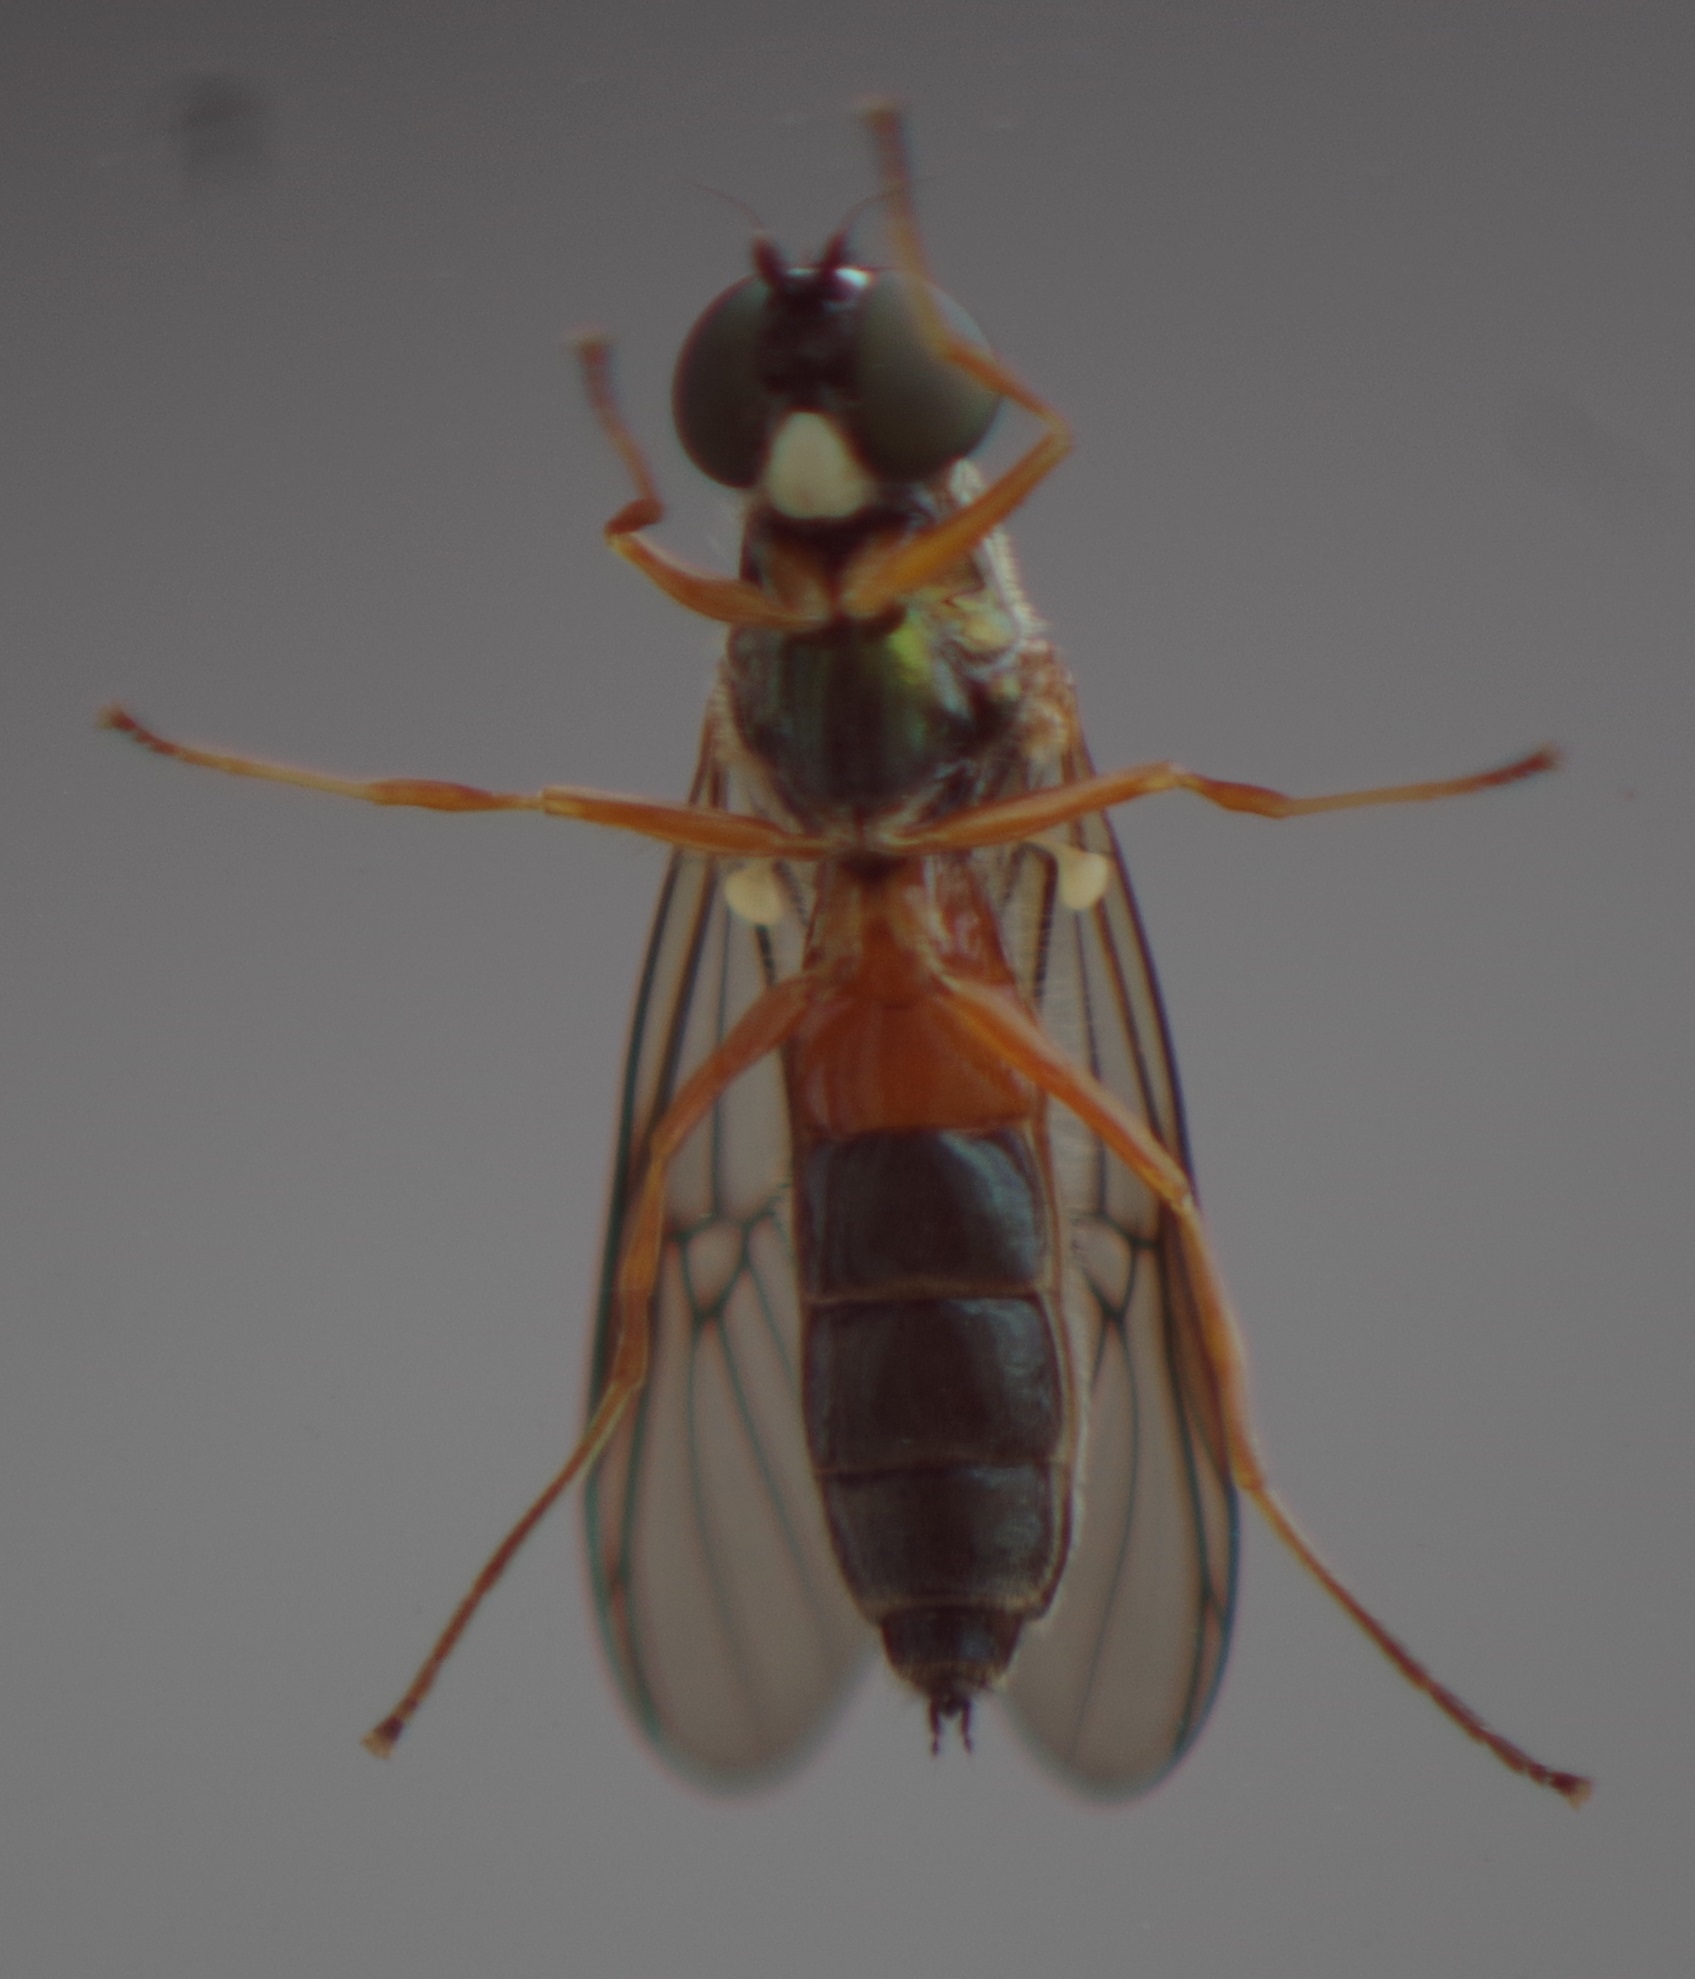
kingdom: Animalia
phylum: Arthropoda
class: Insecta
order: Diptera
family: Stratiomyidae
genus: Sargus
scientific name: Sargus bipunctatus
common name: Twin-spot centurion
